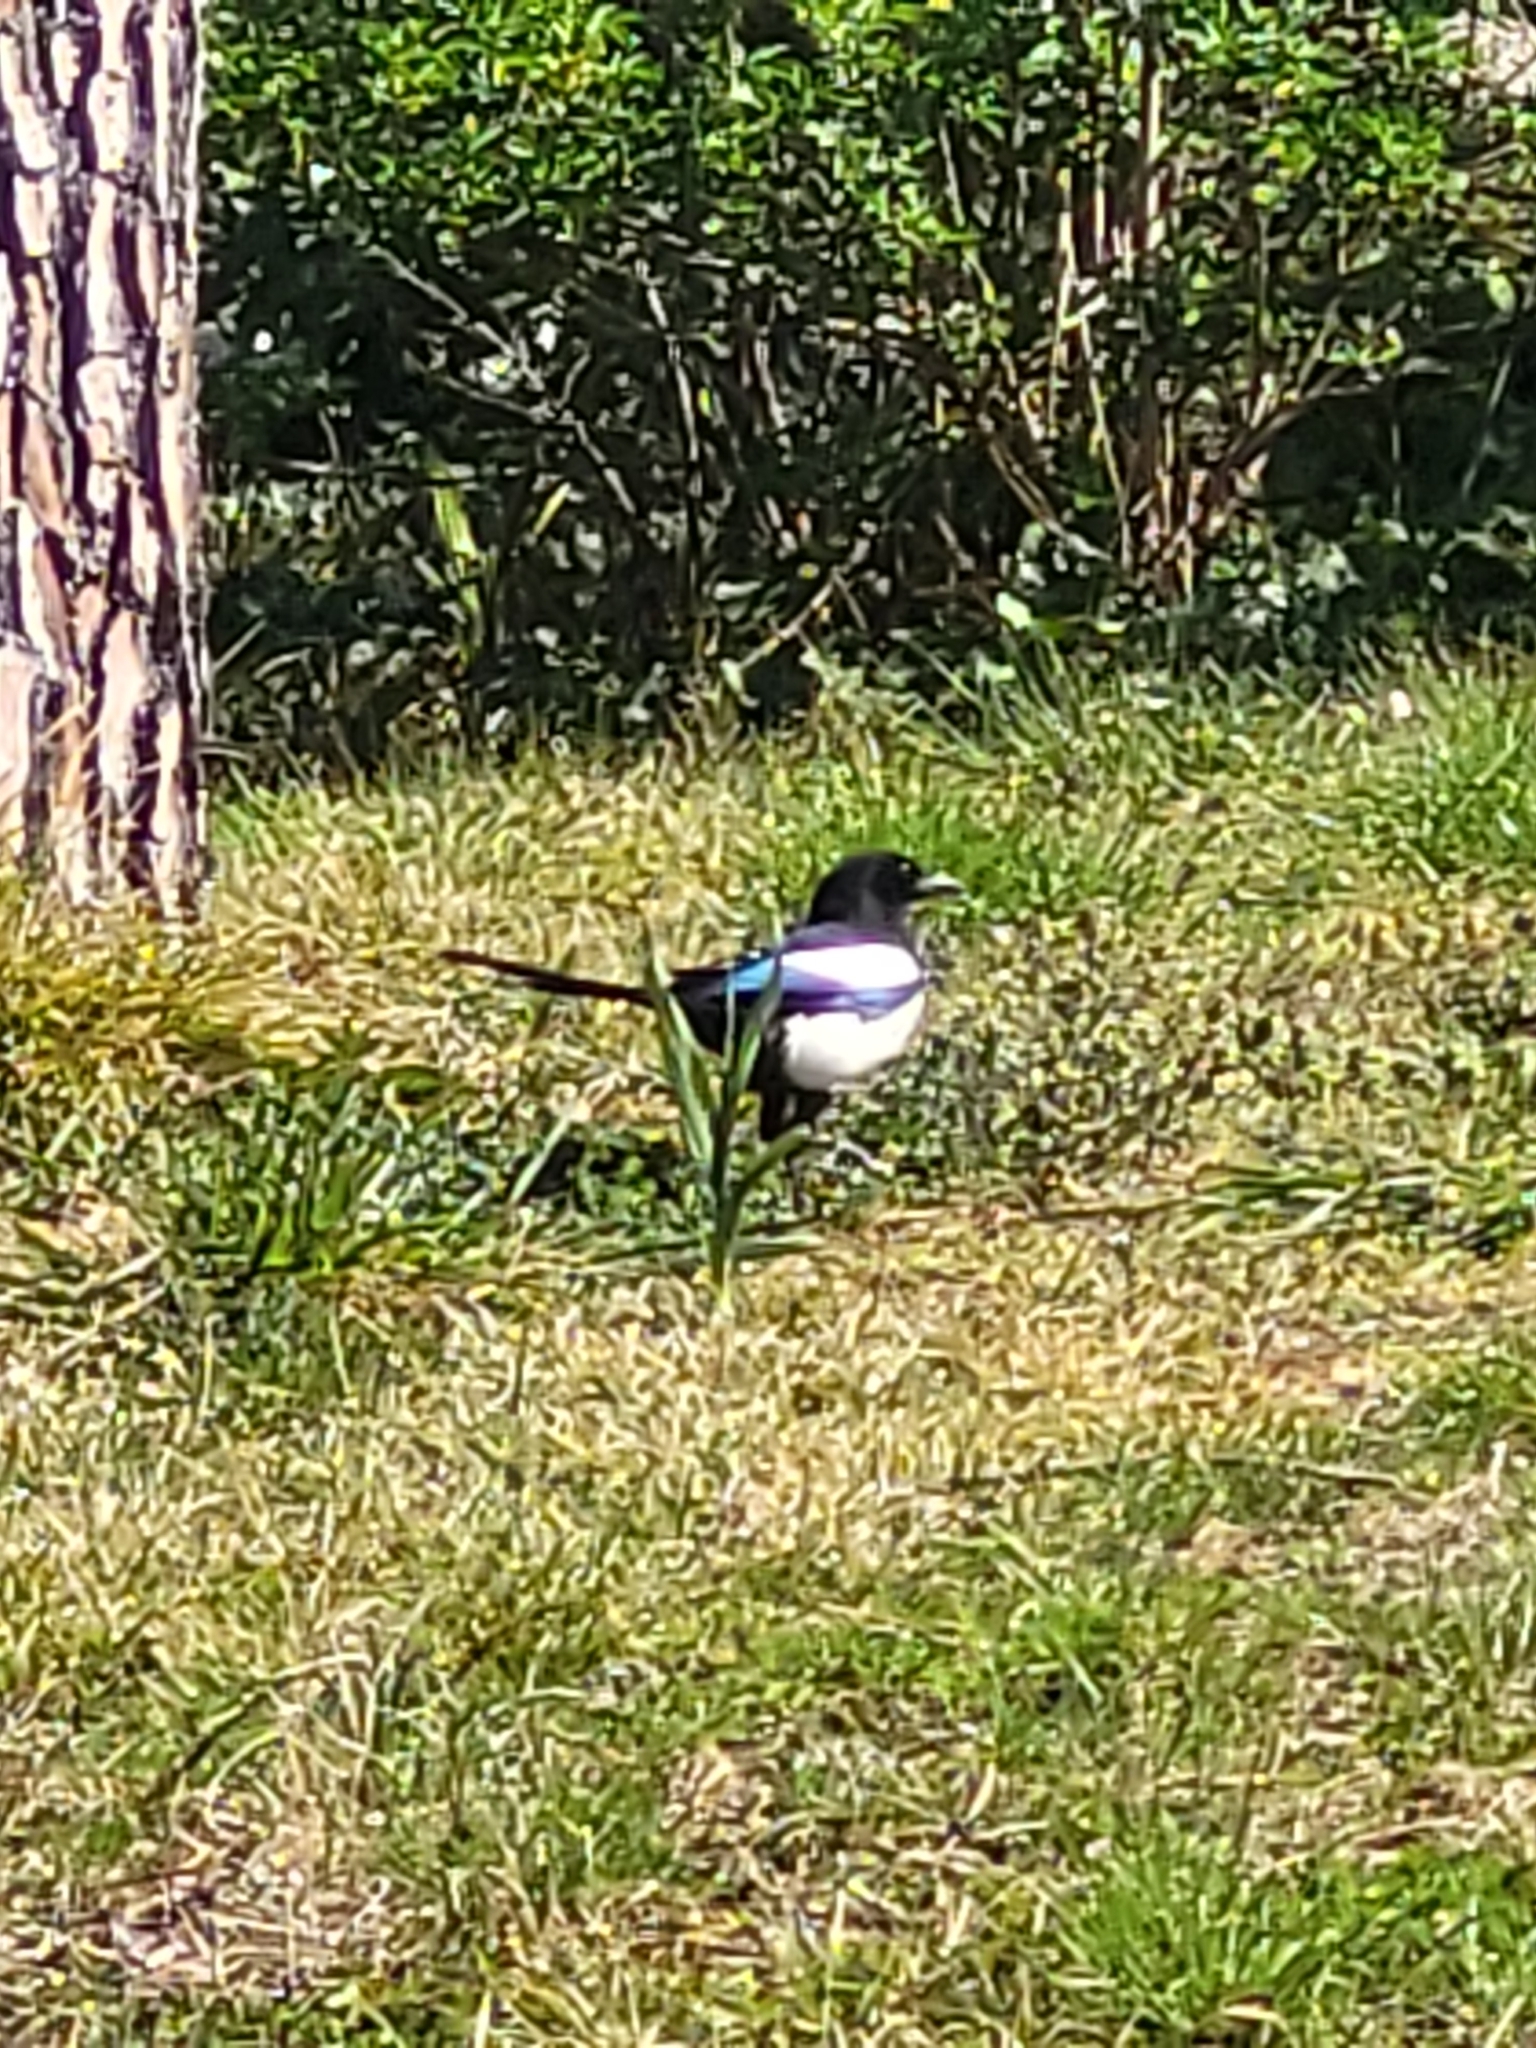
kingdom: Animalia
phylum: Chordata
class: Aves
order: Passeriformes
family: Corvidae
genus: Pica
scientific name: Pica pica
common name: Eurasian magpie
